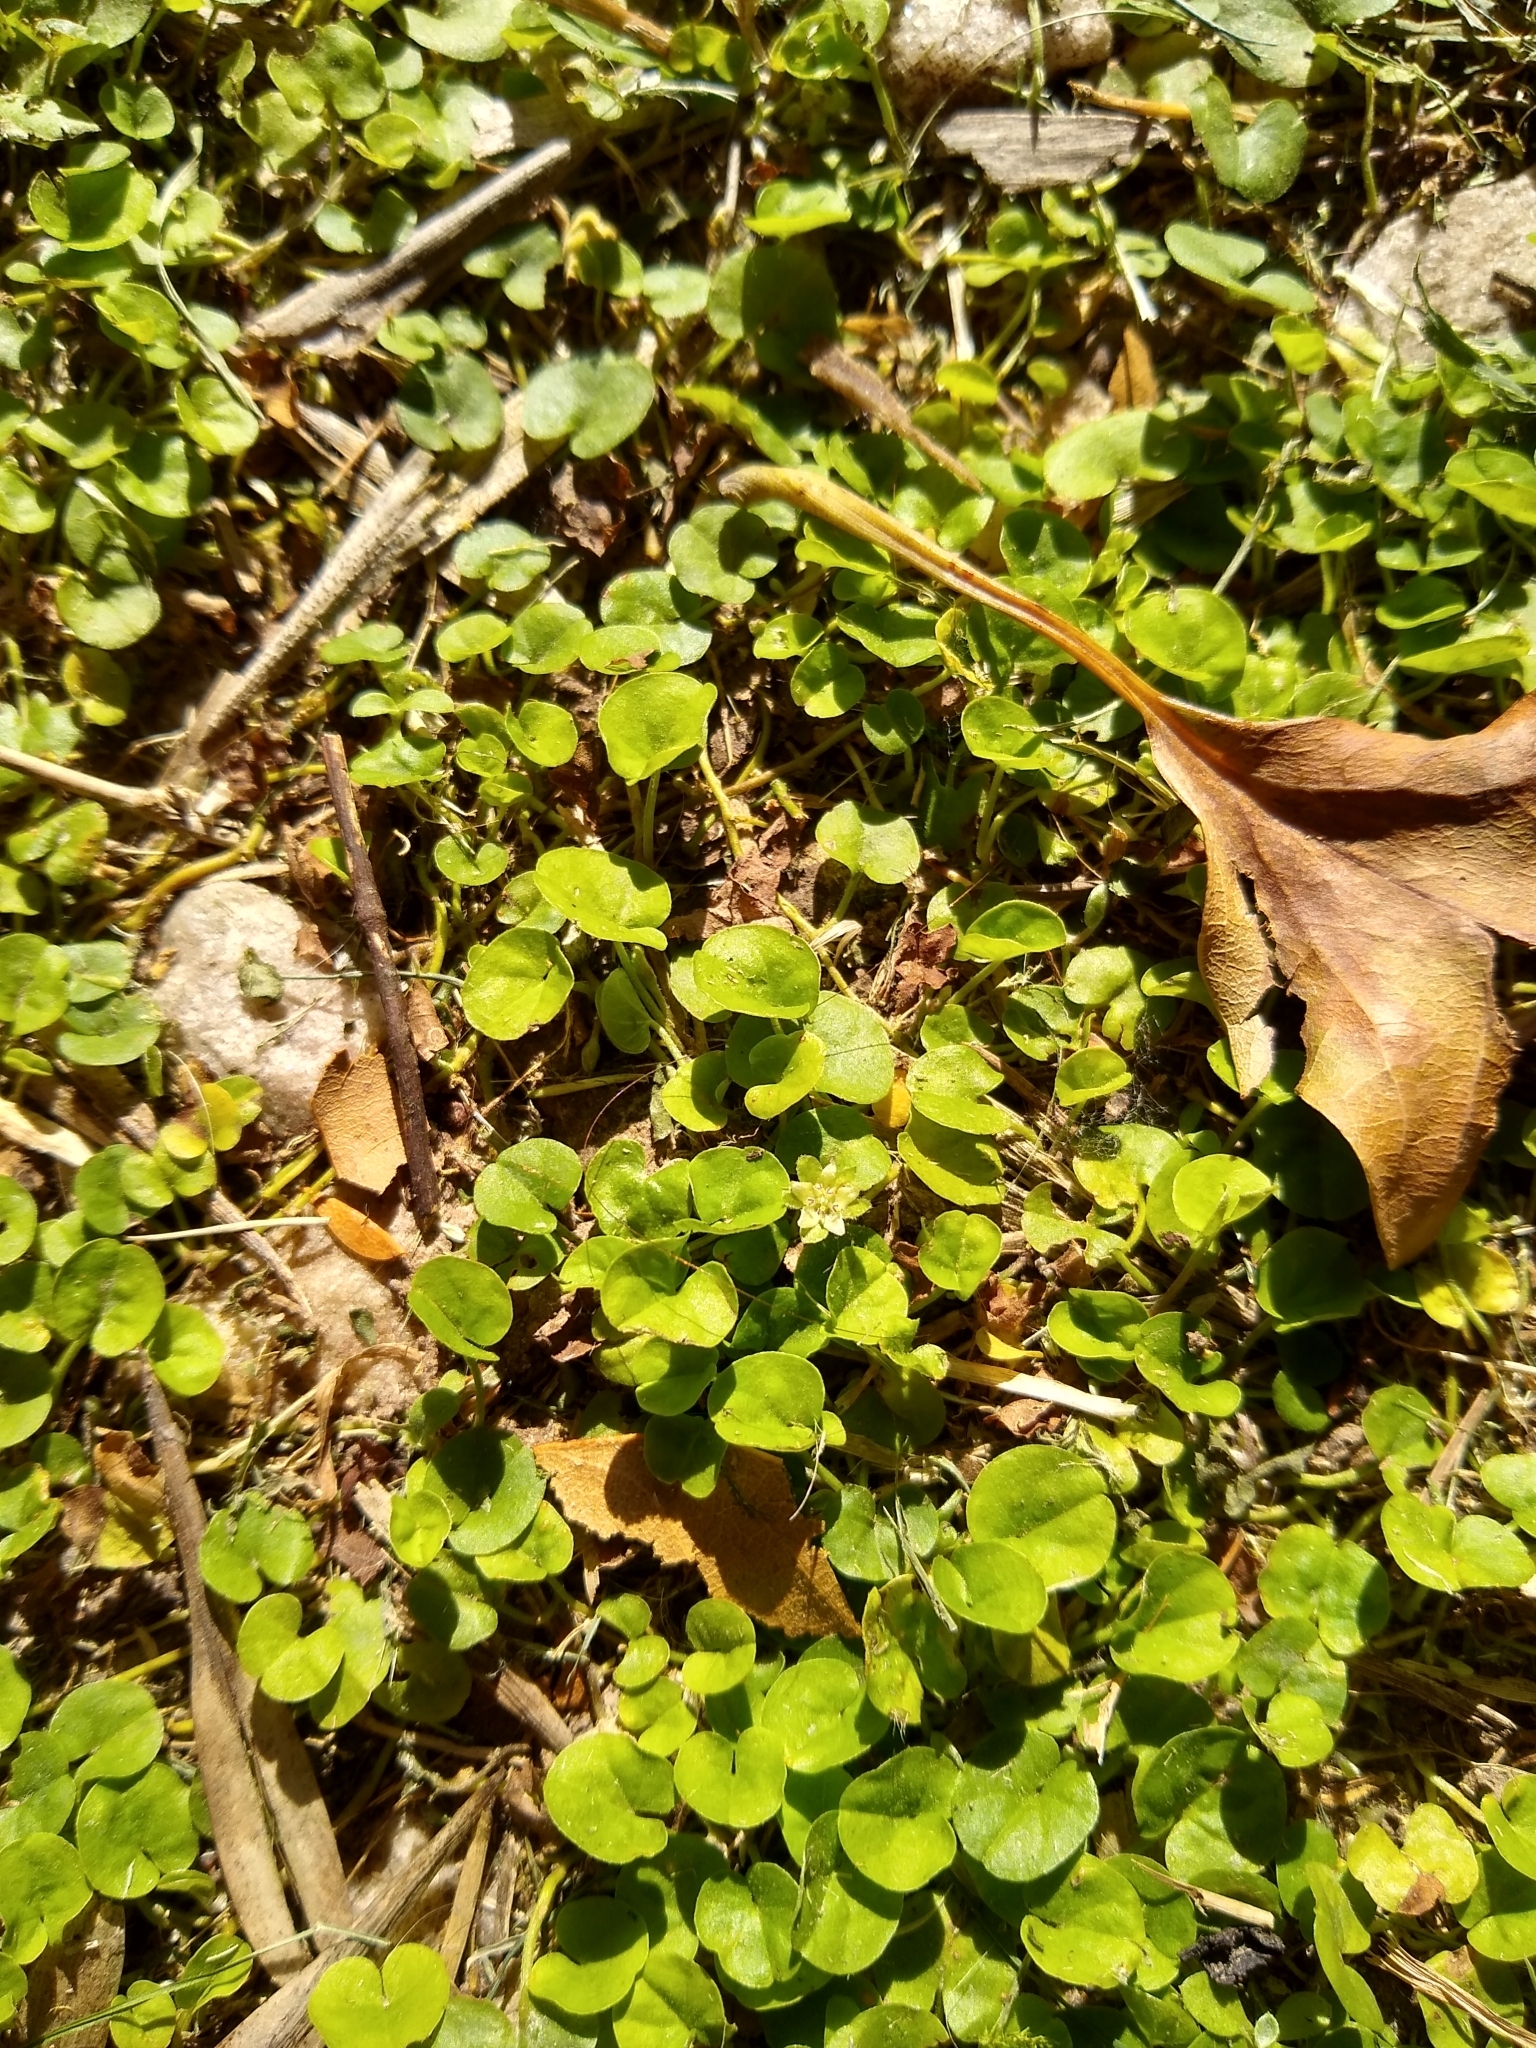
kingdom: Plantae
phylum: Tracheophyta
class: Magnoliopsida
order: Solanales
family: Convolvulaceae
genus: Dichondra
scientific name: Dichondra repens
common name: Kidneyweed
